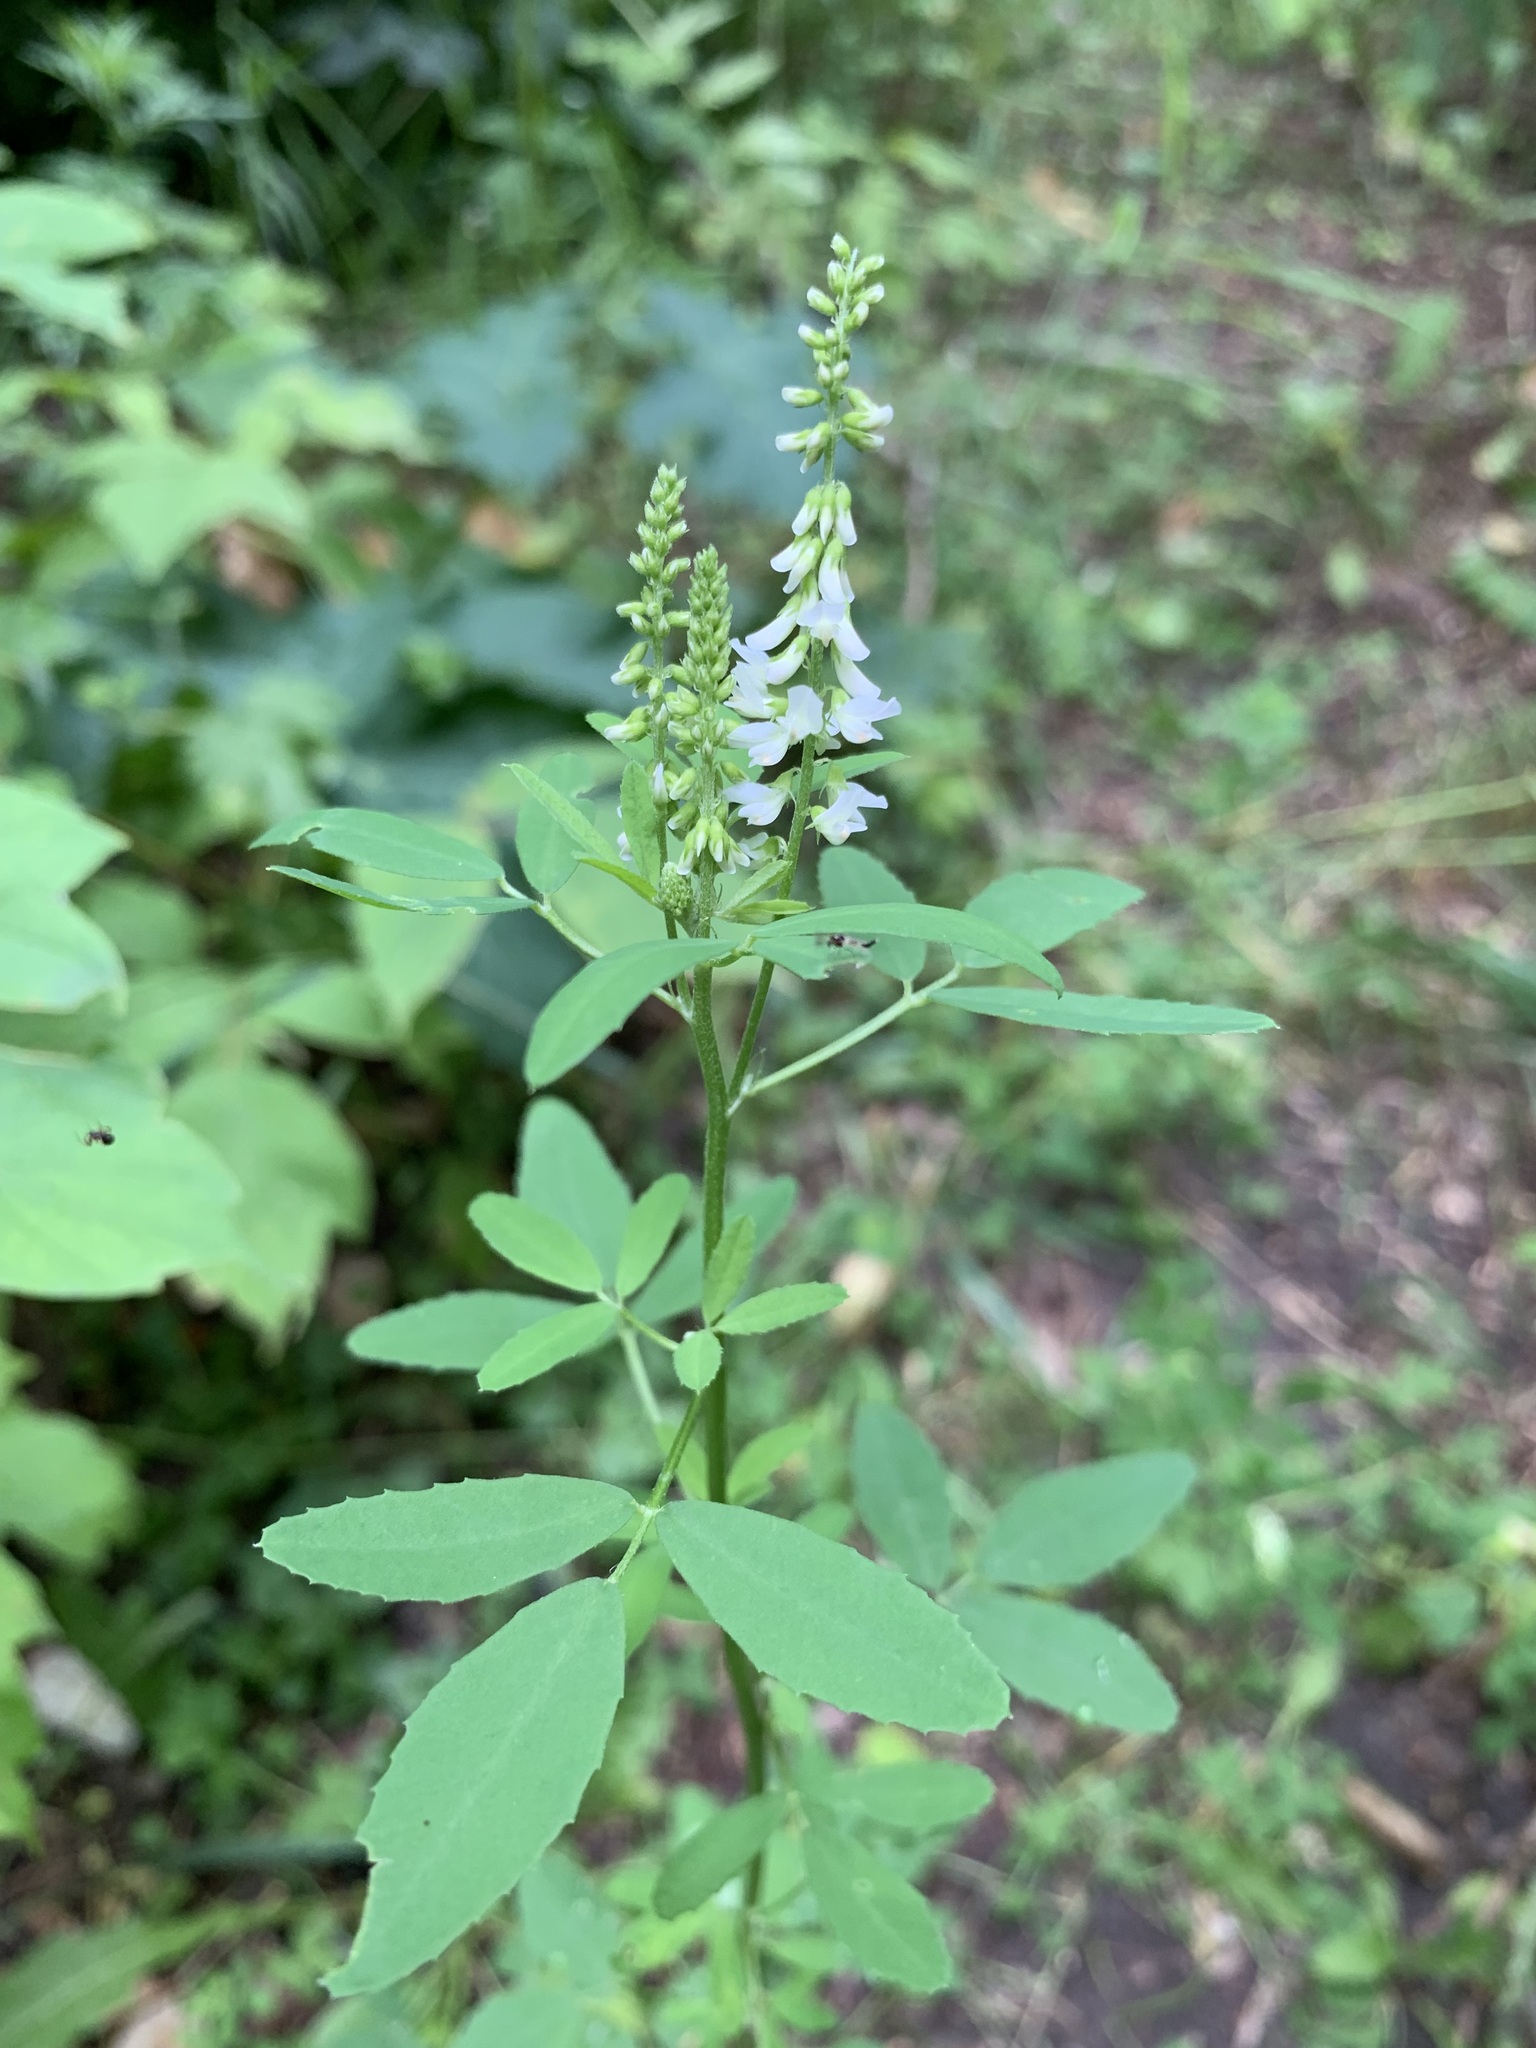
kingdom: Plantae
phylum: Tracheophyta
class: Magnoliopsida
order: Fabales
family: Fabaceae
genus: Melilotus
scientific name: Melilotus albus
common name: White melilot
